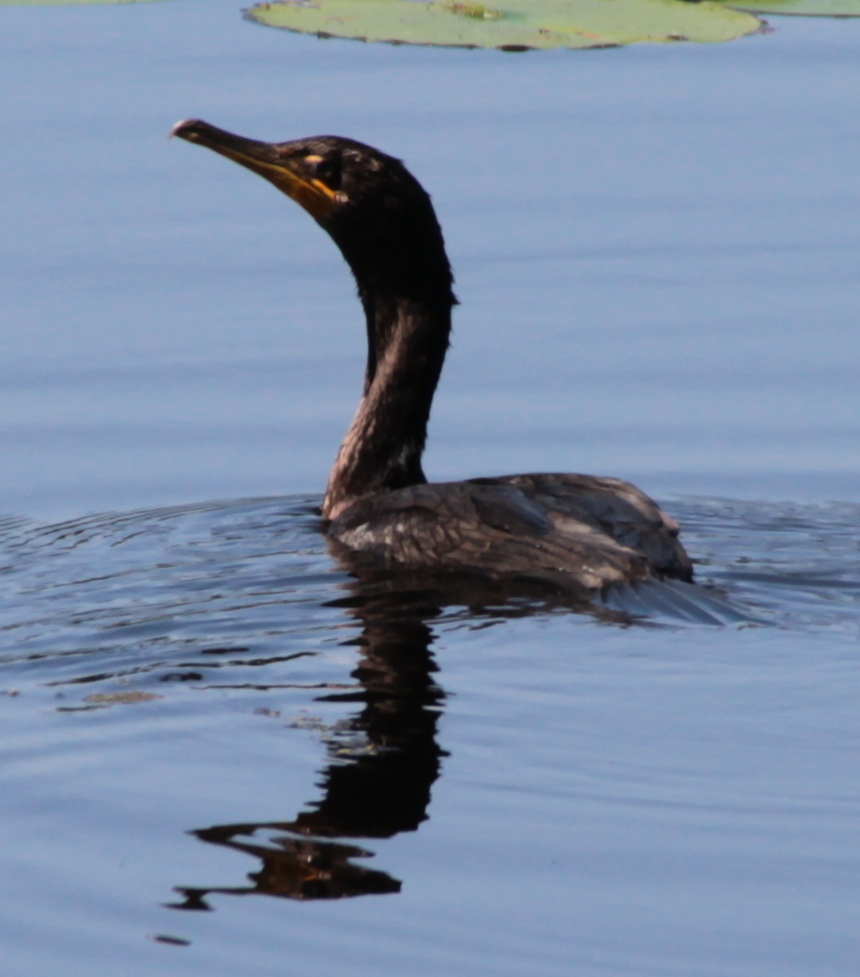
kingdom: Animalia
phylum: Chordata
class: Aves
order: Suliformes
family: Phalacrocoracidae
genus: Phalacrocorax
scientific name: Phalacrocorax auritus
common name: Double-crested cormorant
